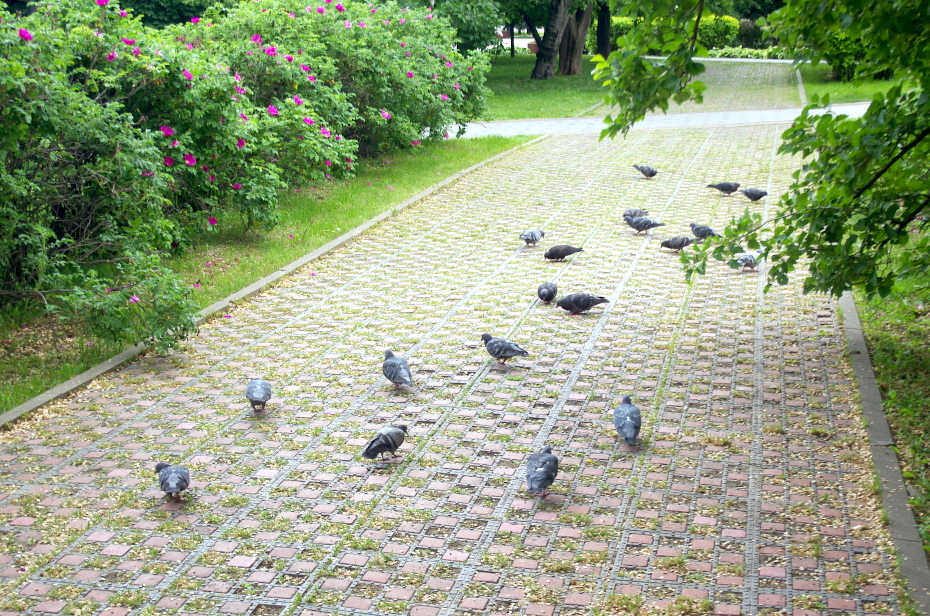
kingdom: Animalia
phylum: Chordata
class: Aves
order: Columbiformes
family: Columbidae
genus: Columba
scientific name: Columba livia
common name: Rock pigeon
